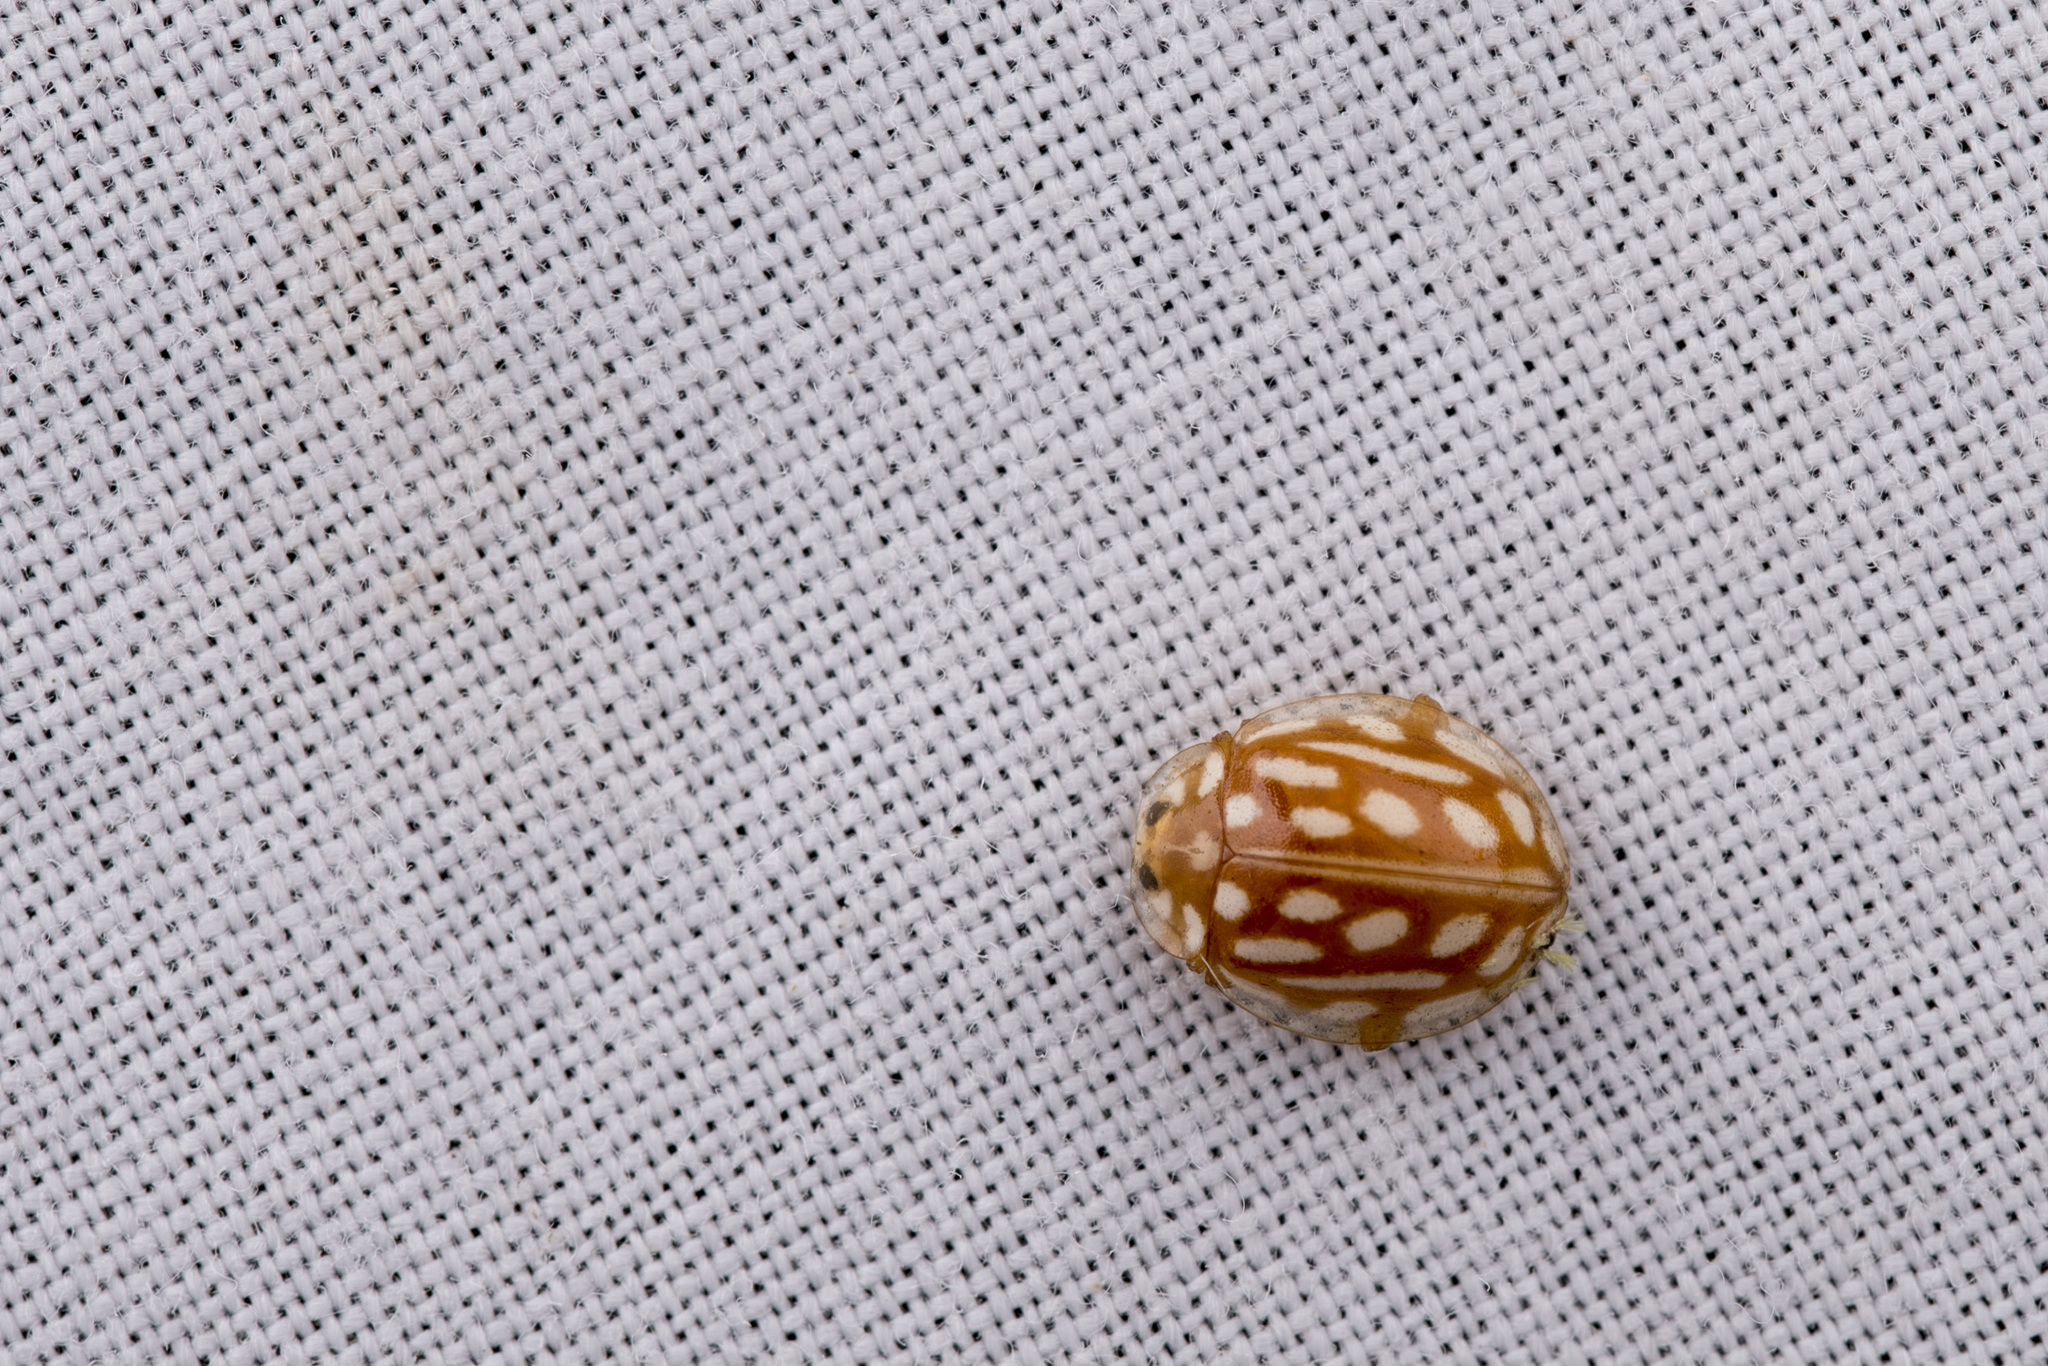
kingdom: Animalia
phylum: Arthropoda
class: Insecta
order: Coleoptera
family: Coccinellidae
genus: Halyzia
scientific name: Halyzia sanscrita
